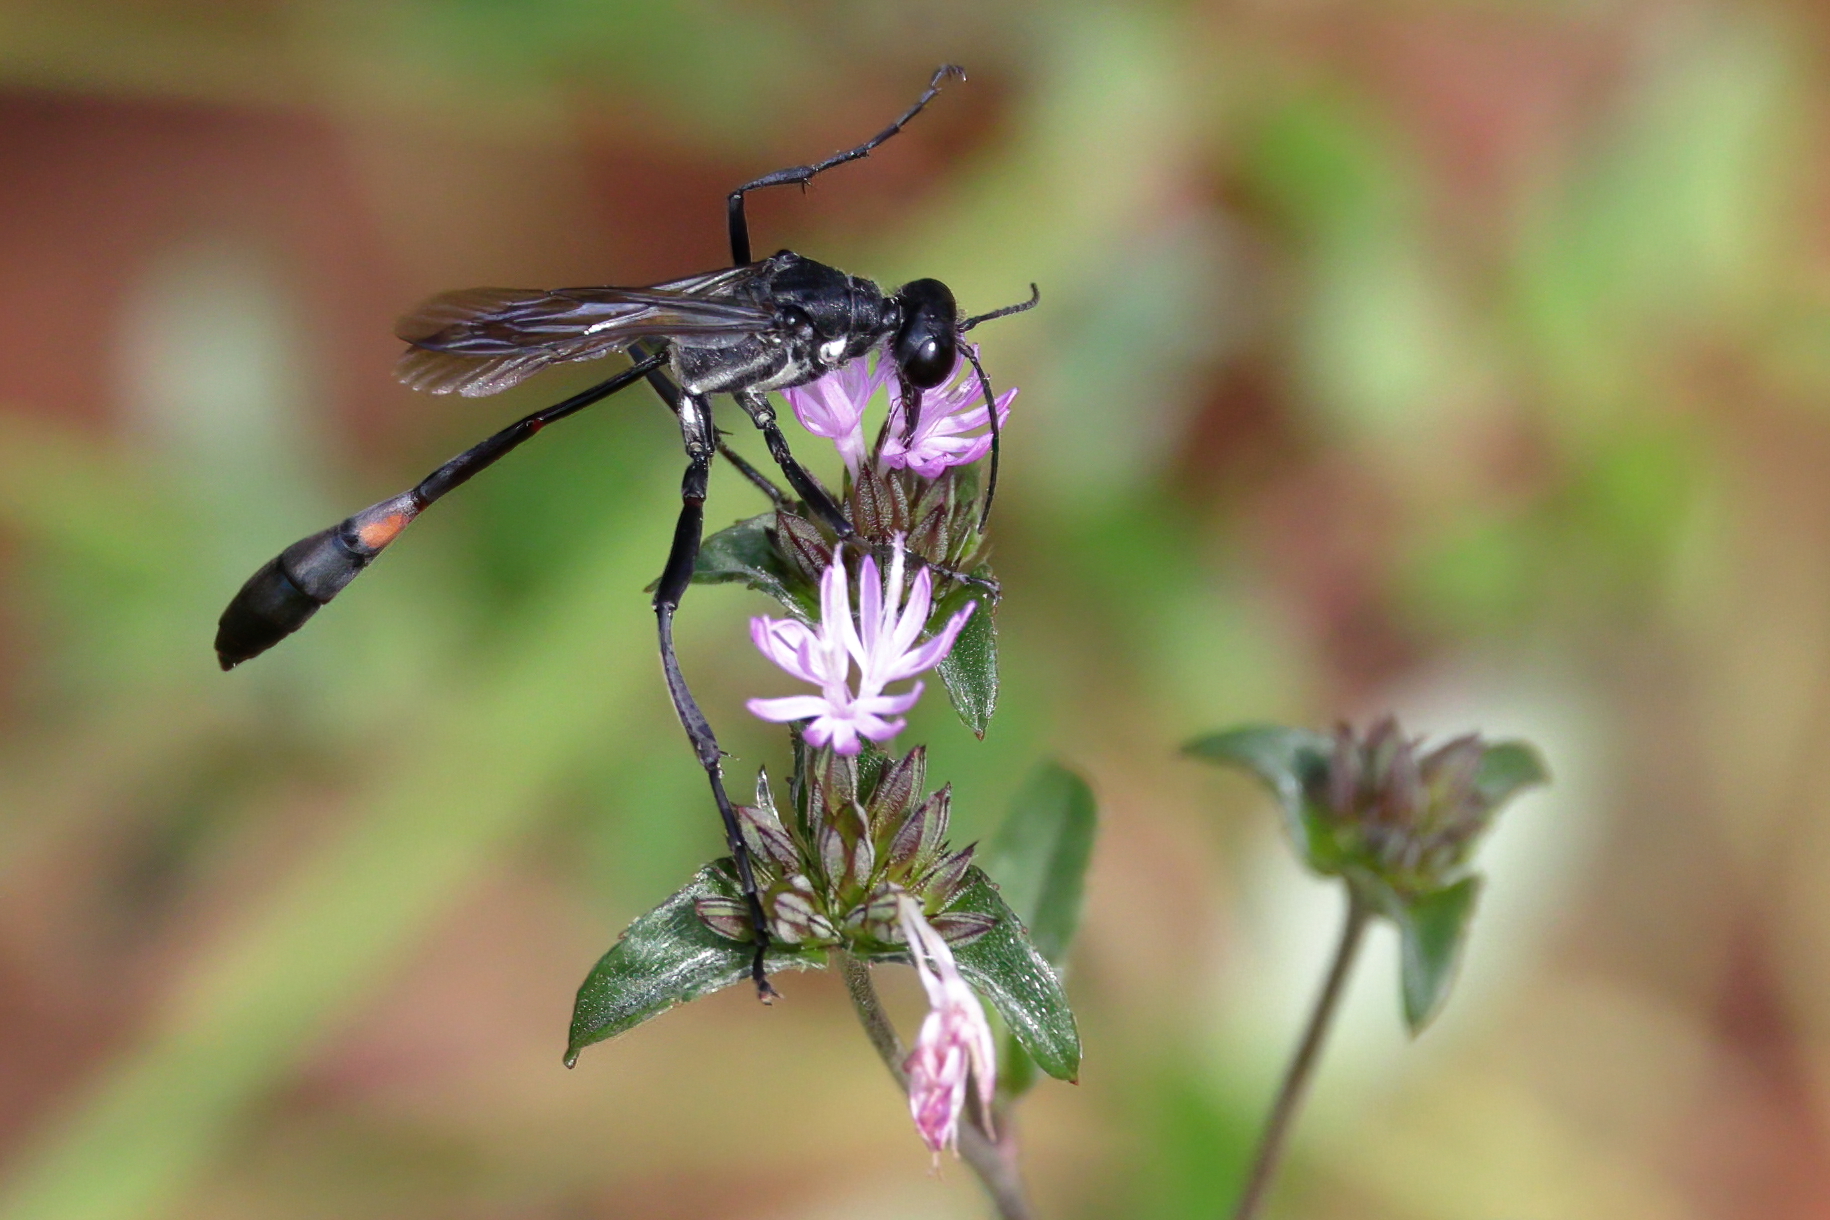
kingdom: Animalia
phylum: Arthropoda
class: Insecta
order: Hymenoptera
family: Sphecidae
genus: Ammophila
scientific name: Ammophila procera
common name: Common thread-waisted wasp
